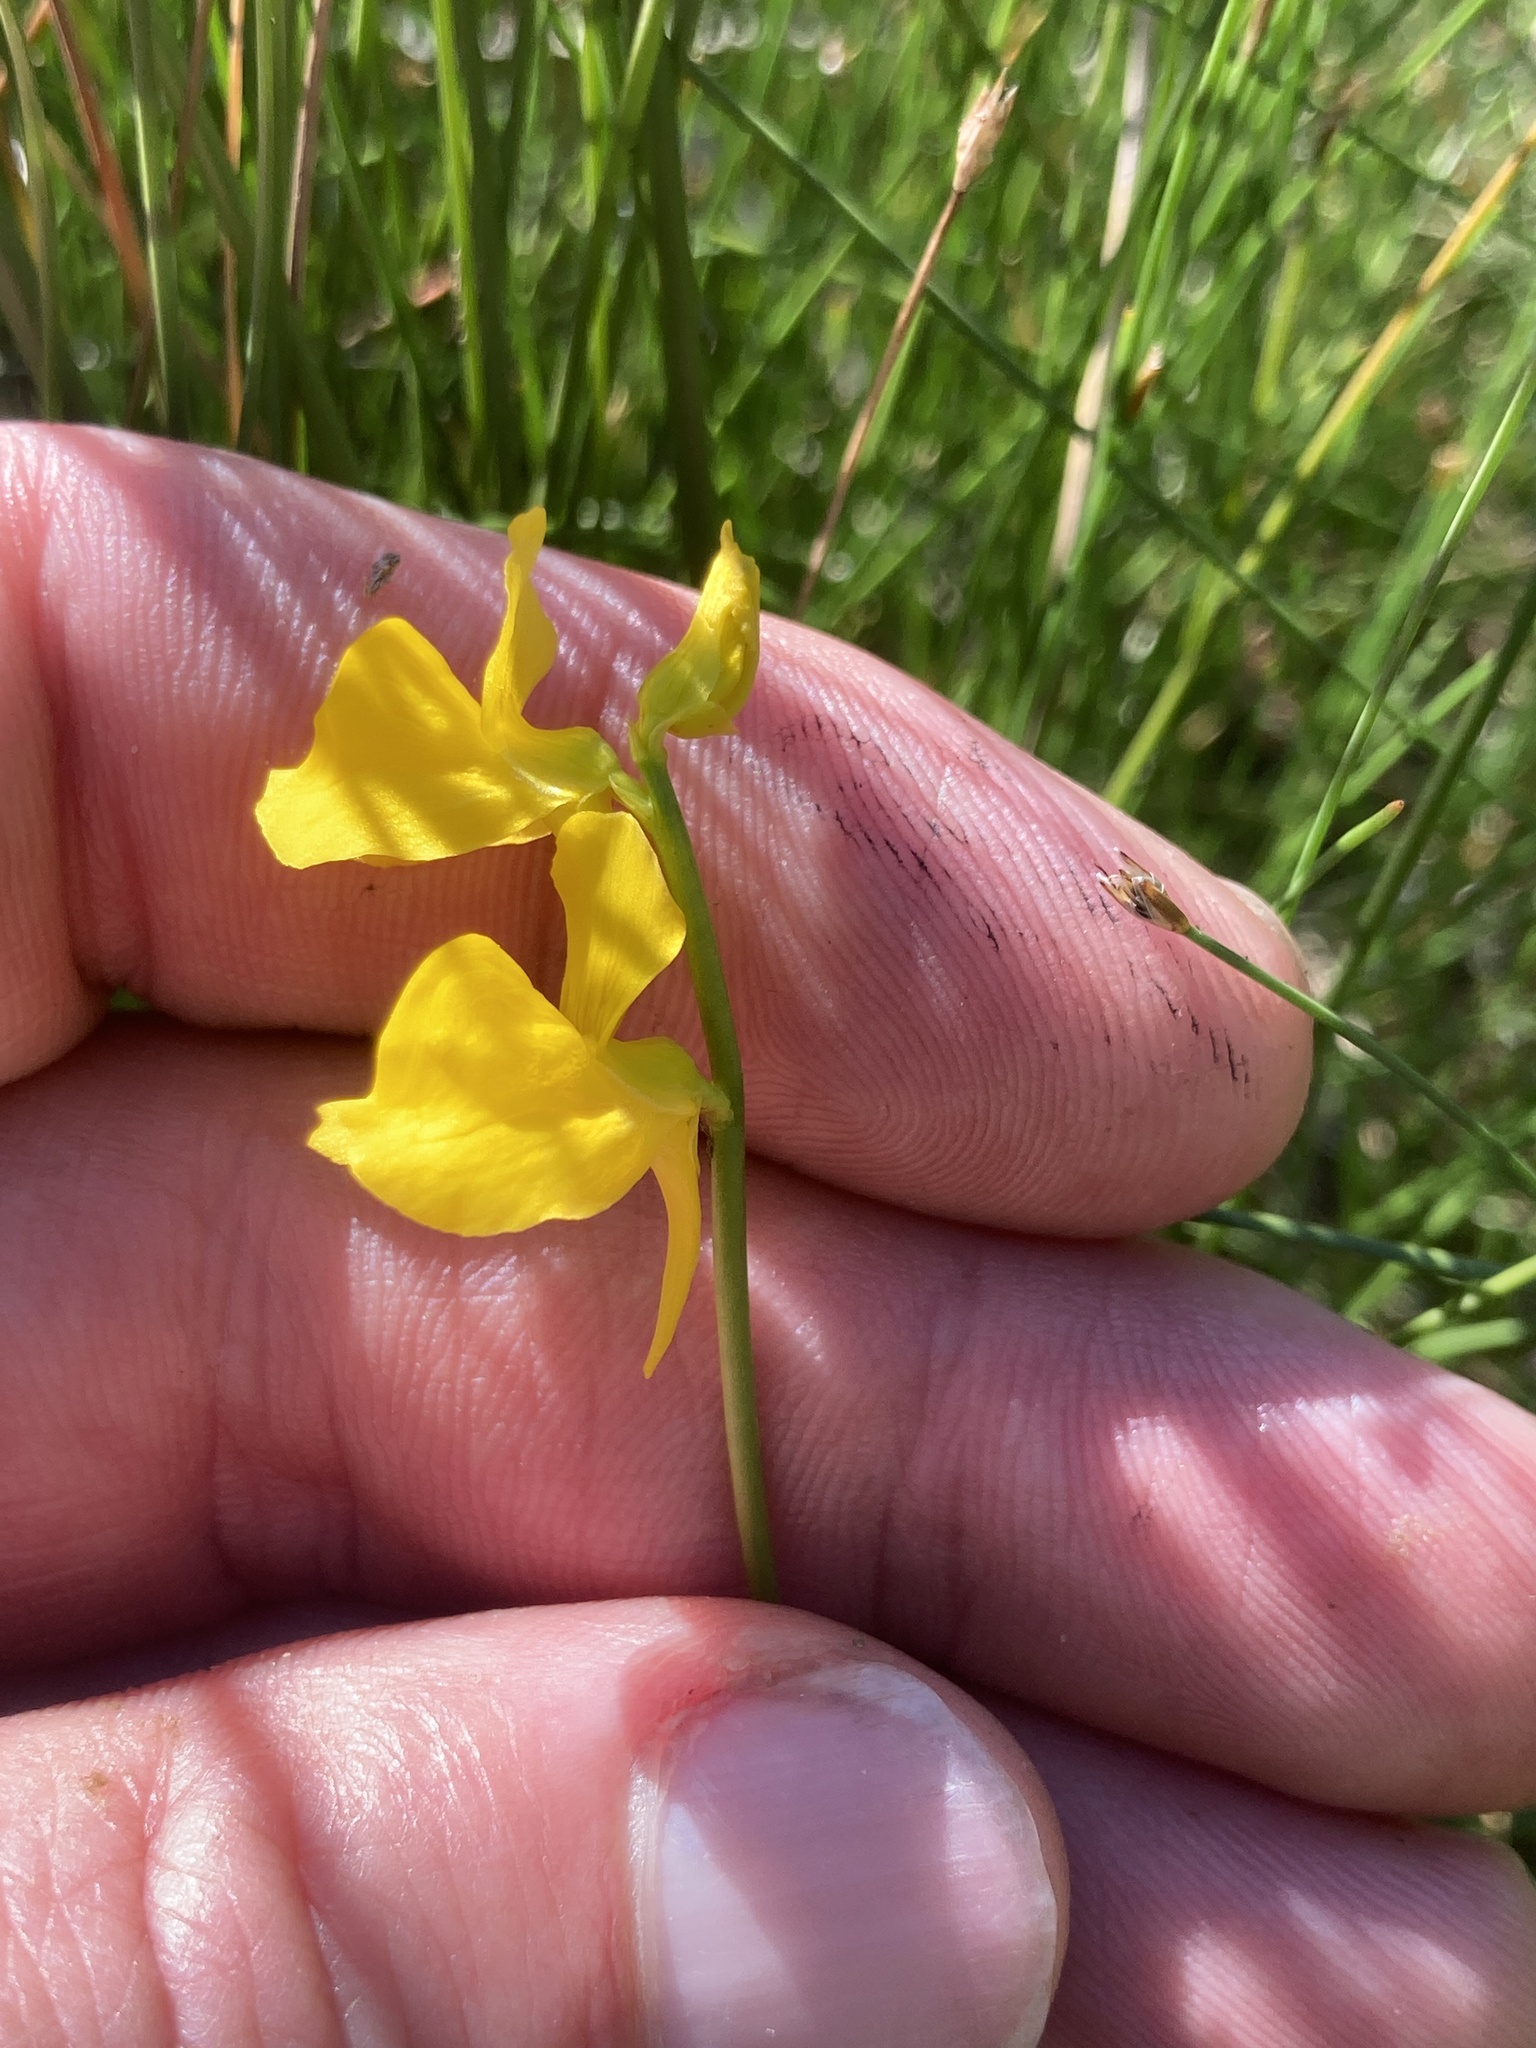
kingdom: Plantae
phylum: Tracheophyta
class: Magnoliopsida
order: Lamiales
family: Lentibulariaceae
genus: Utricularia
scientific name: Utricularia cornuta
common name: Horned bladderwort
